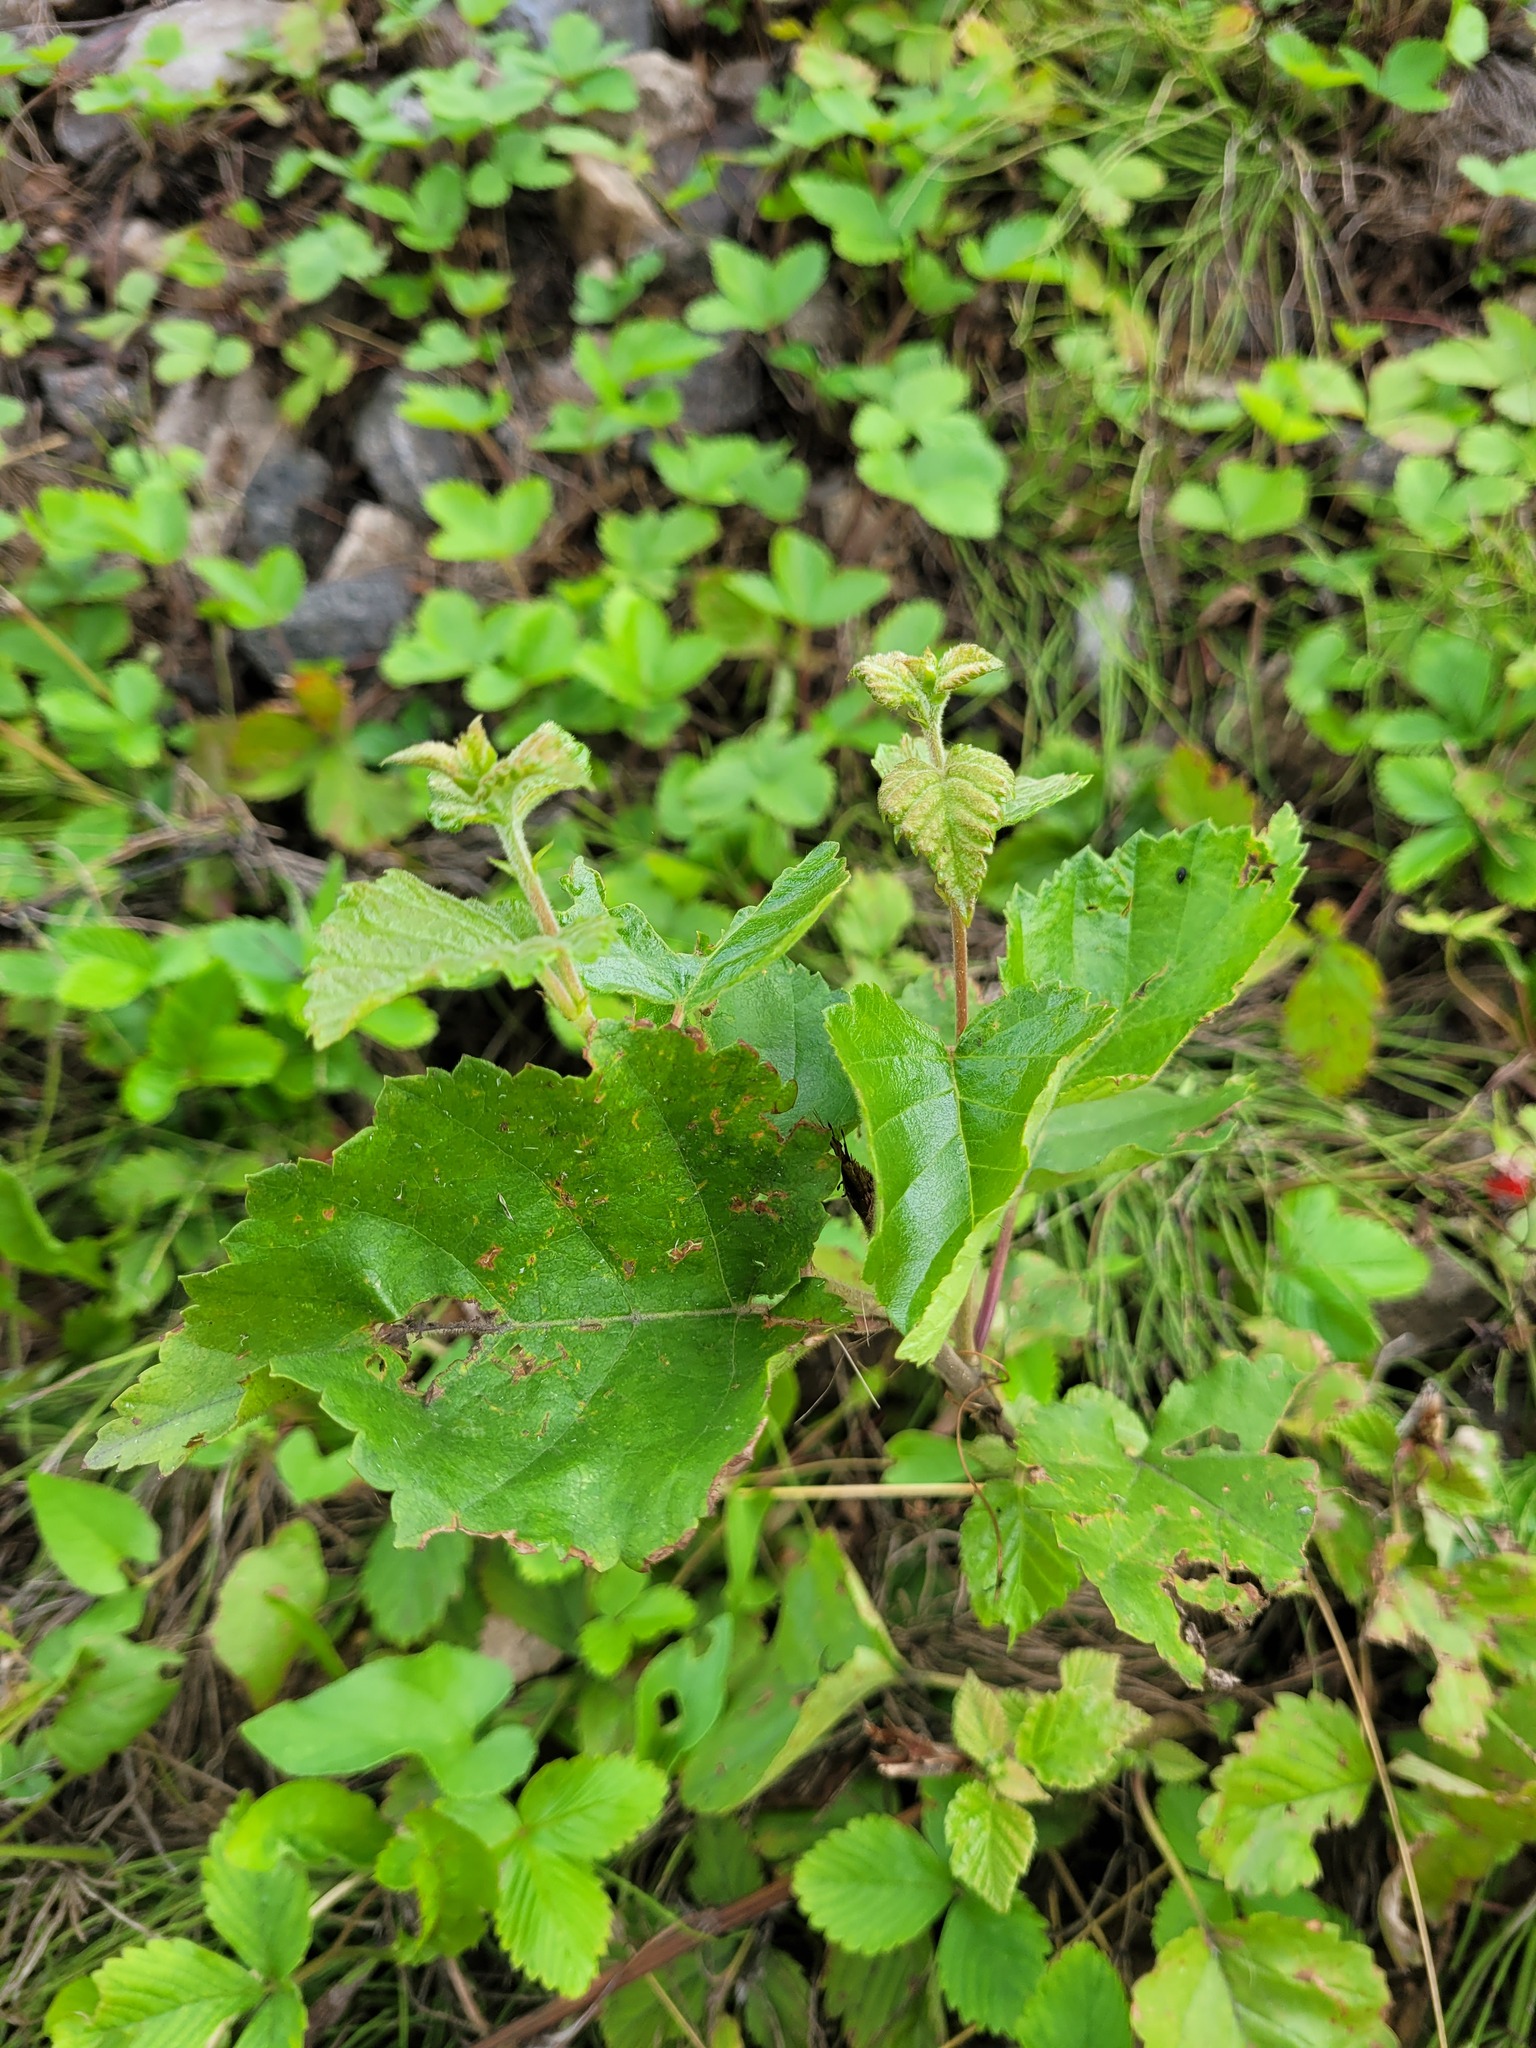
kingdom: Plantae
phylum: Tracheophyta
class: Magnoliopsida
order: Fagales
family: Betulaceae
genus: Betula
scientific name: Betula pubescens
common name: Downy birch
